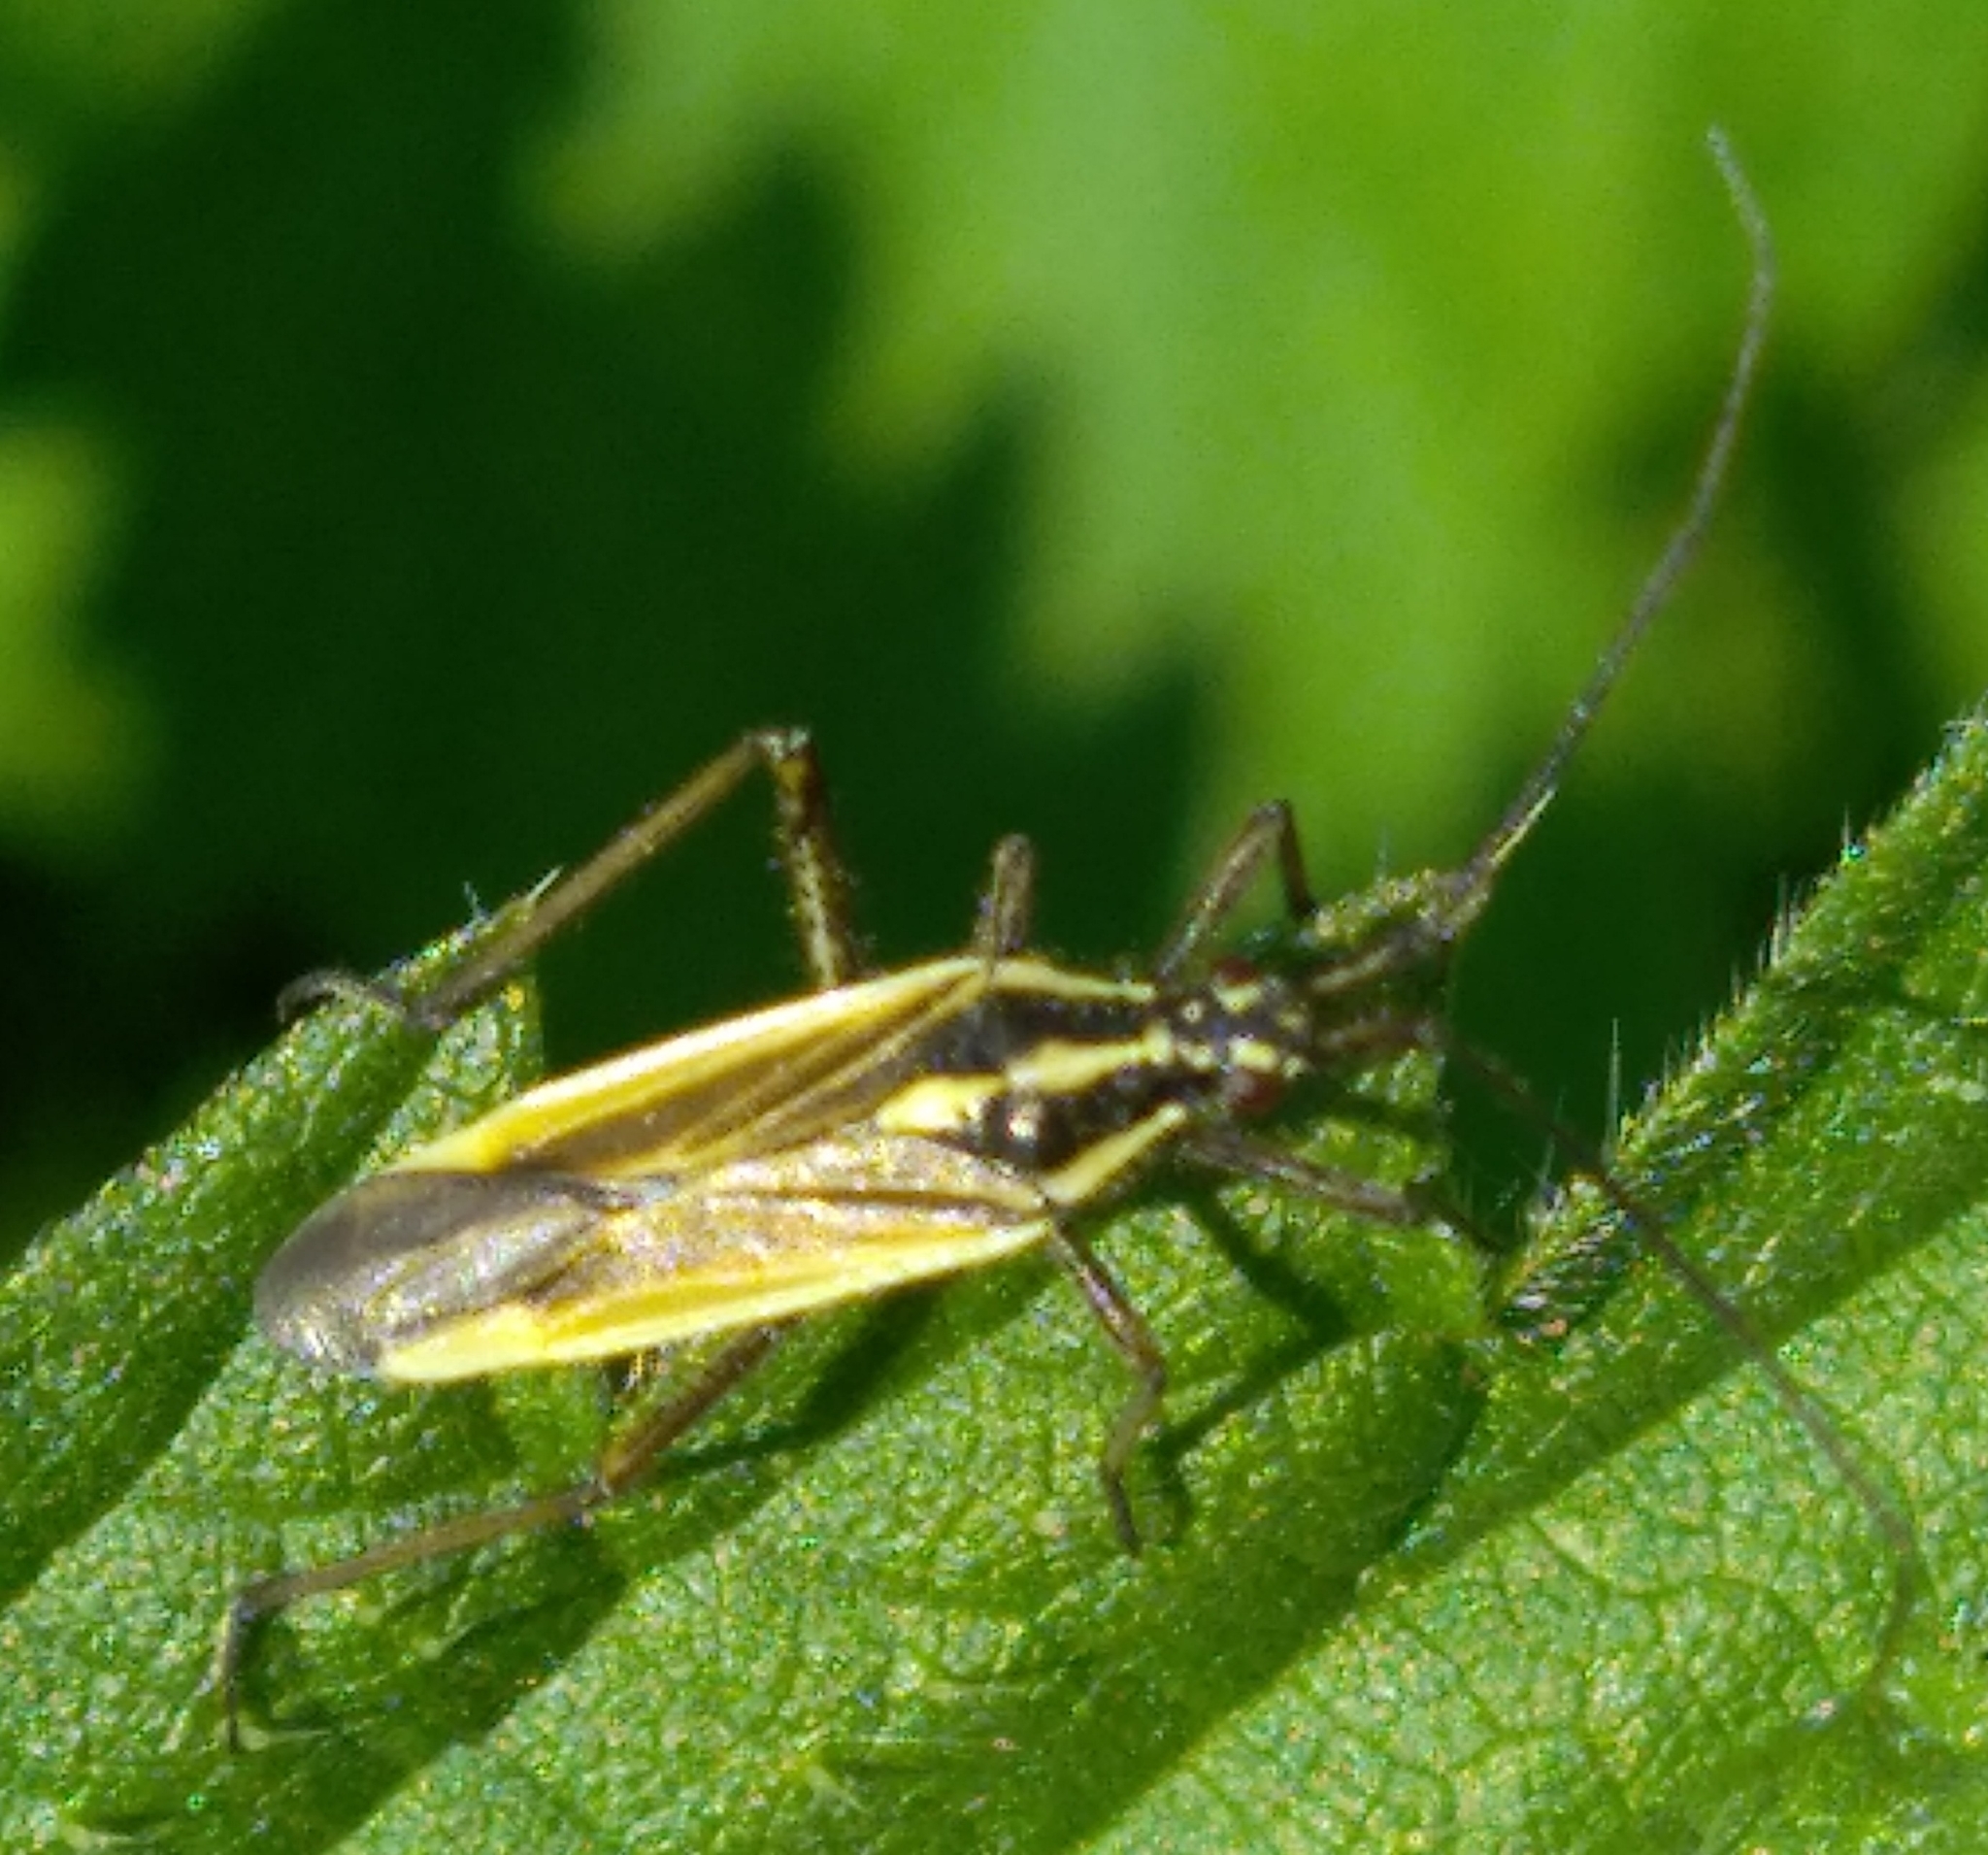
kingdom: Animalia
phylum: Arthropoda
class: Insecta
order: Hemiptera
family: Miridae
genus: Leptopterna
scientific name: Leptopterna dolabrata
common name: Meadow plant bug
